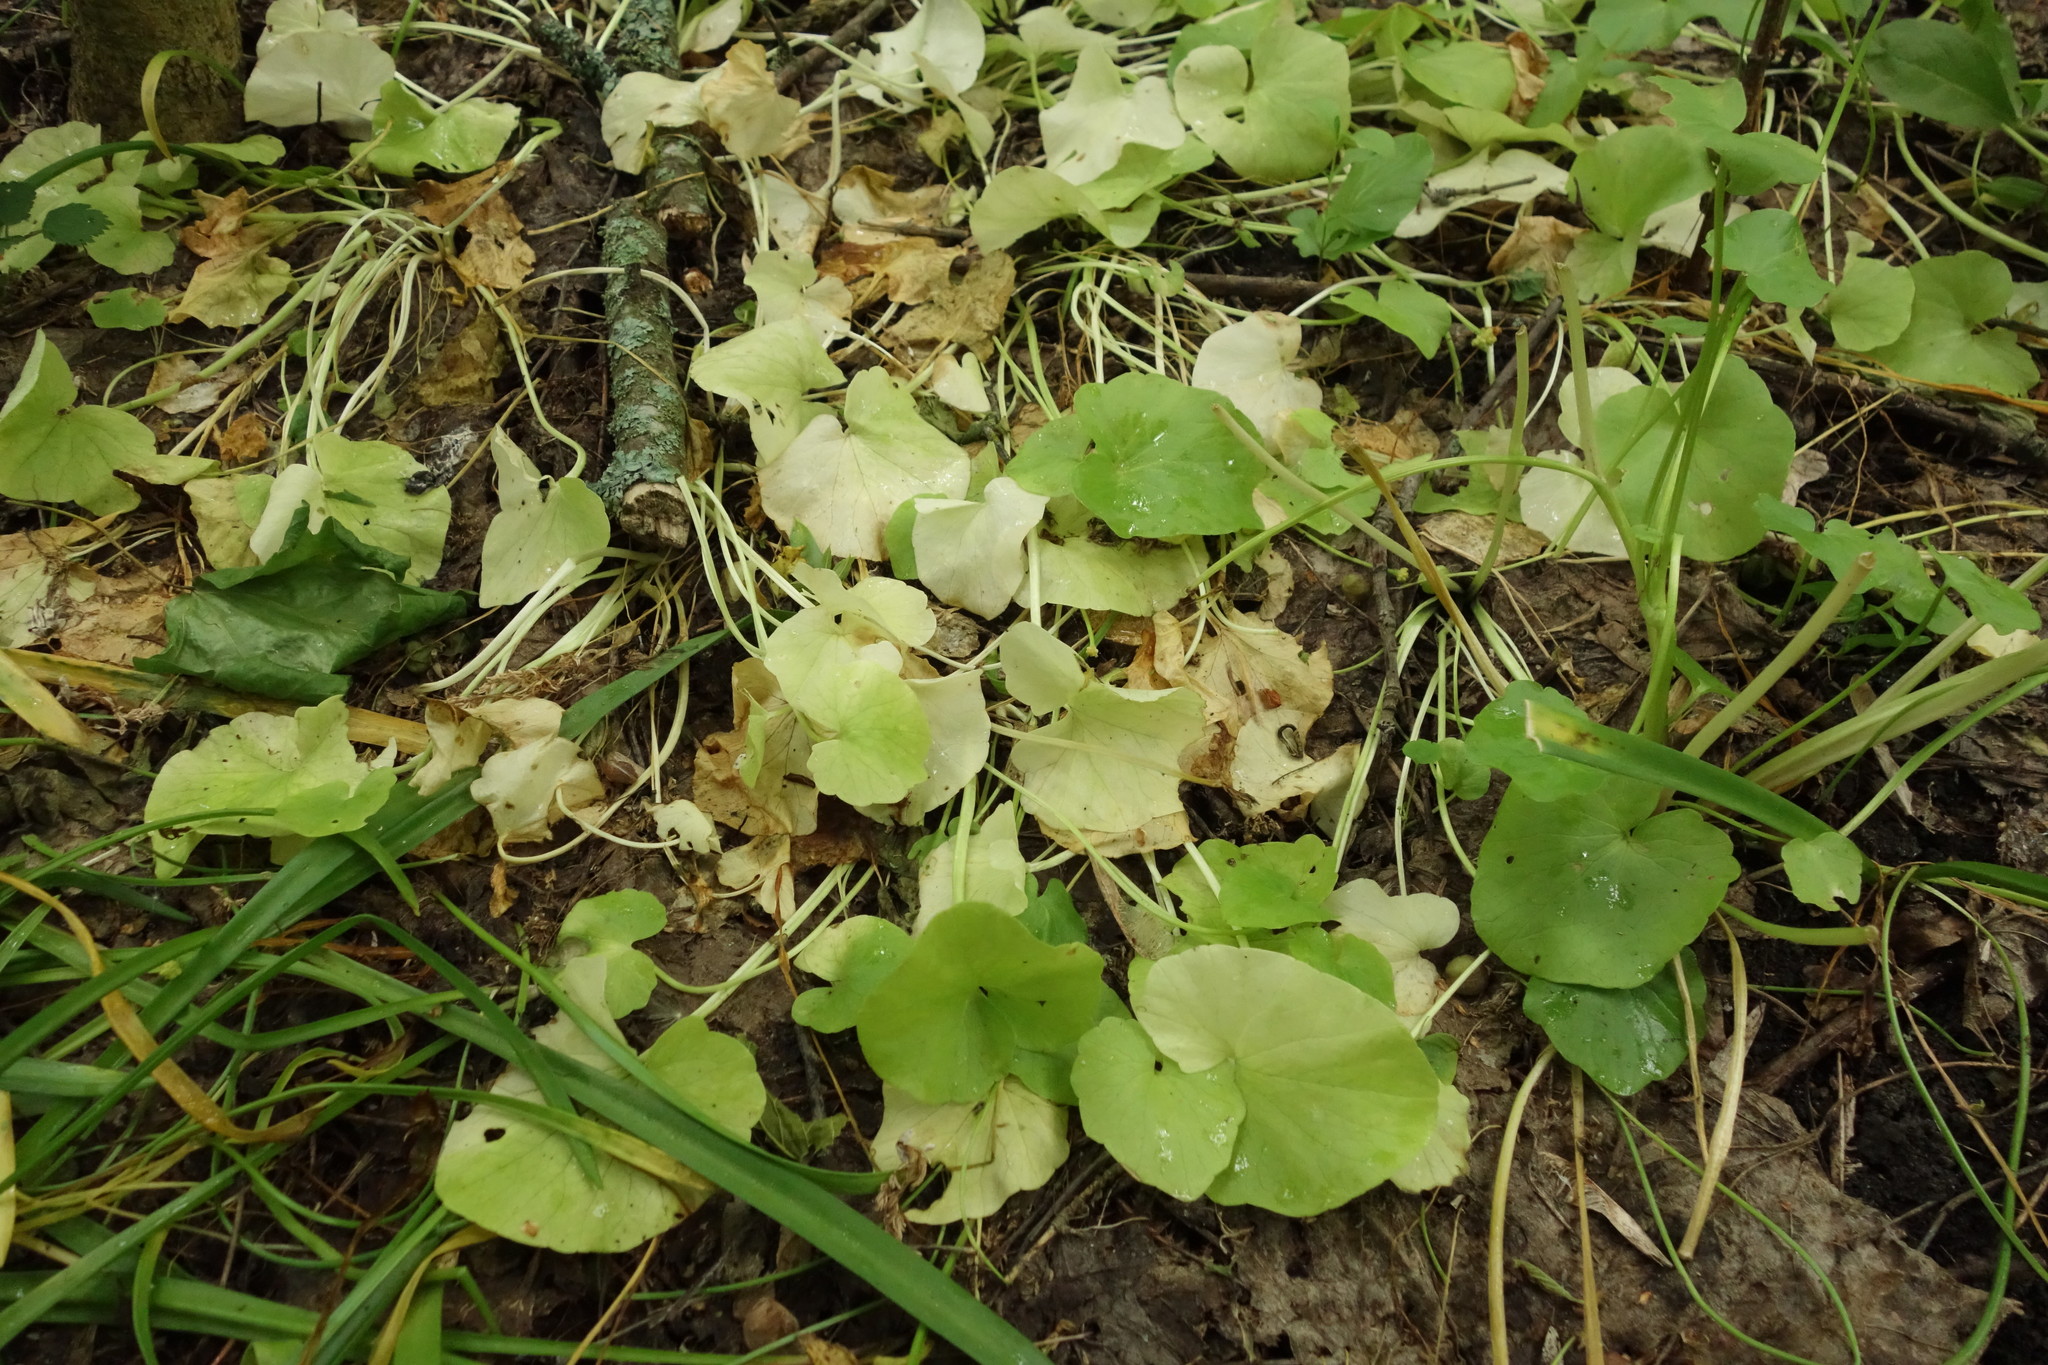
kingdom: Plantae
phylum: Tracheophyta
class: Magnoliopsida
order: Ranunculales
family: Ranunculaceae
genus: Ficaria
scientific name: Ficaria verna
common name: Lesser celandine
